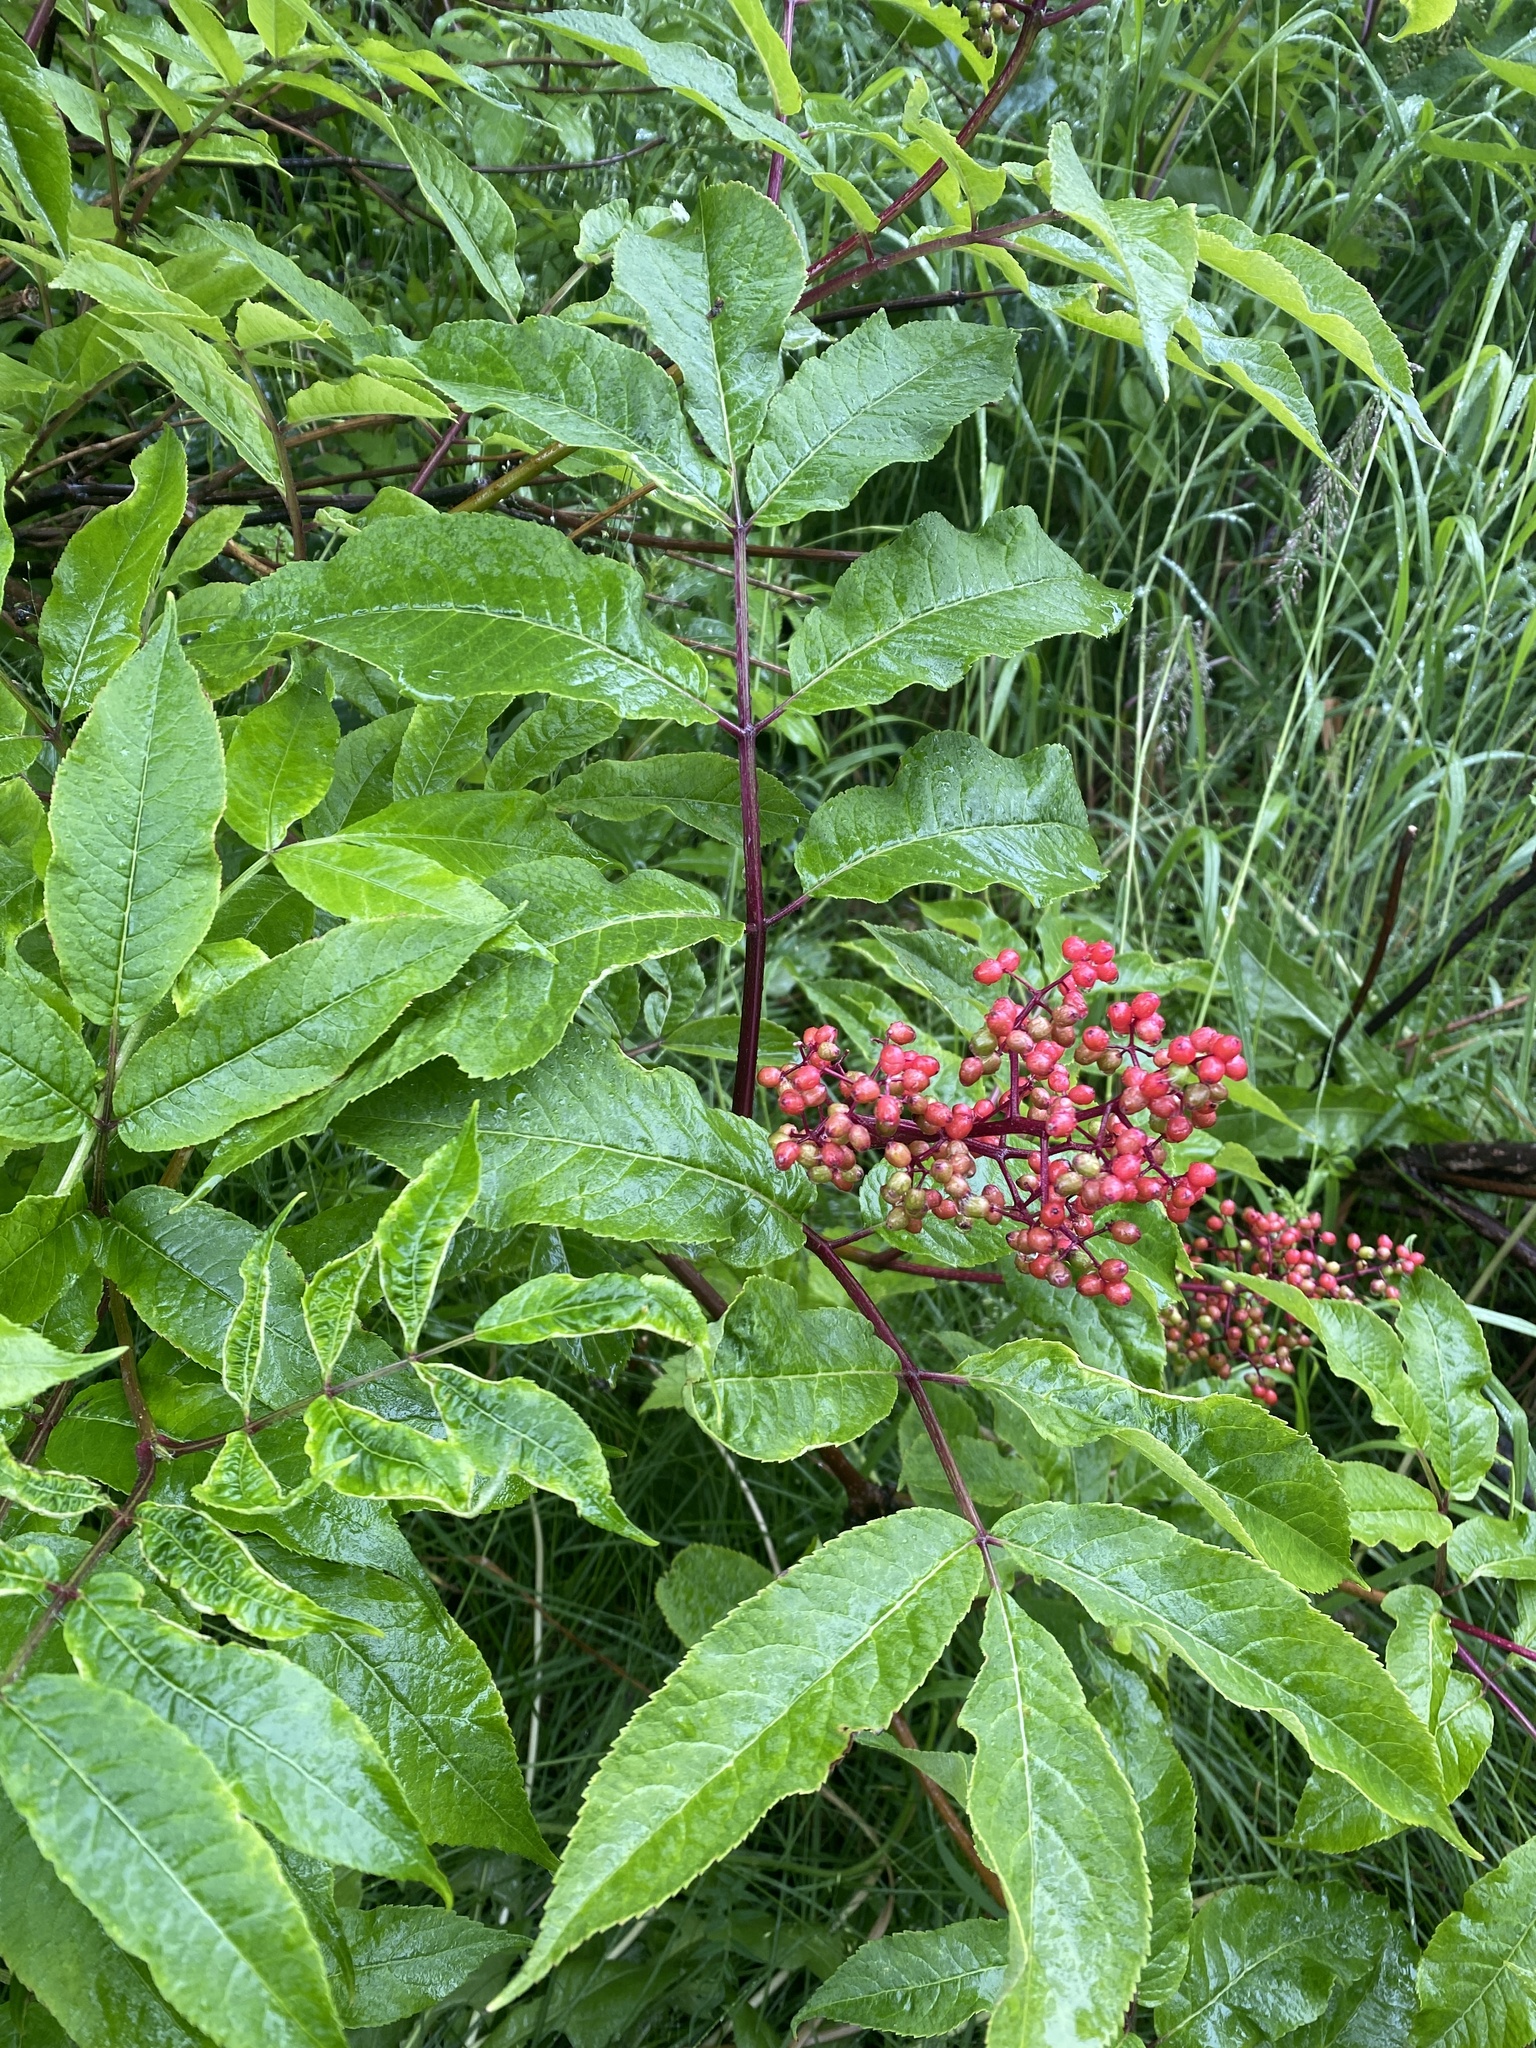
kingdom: Plantae
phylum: Tracheophyta
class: Magnoliopsida
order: Dipsacales
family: Viburnaceae
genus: Sambucus
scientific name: Sambucus racemosa
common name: Red-berried elder
